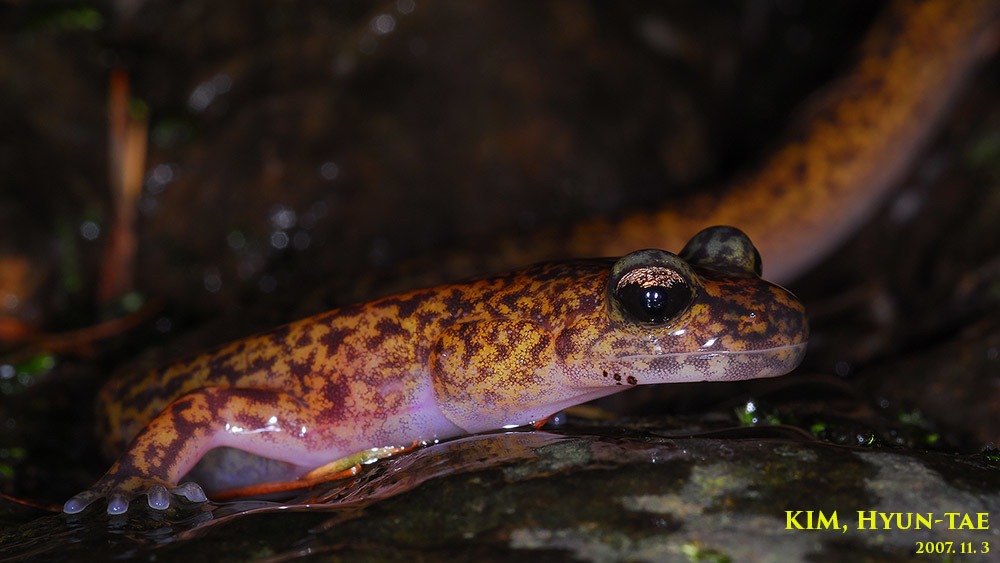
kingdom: Animalia
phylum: Chordata
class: Amphibia
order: Caudata
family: Hynobiidae
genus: Onychodactylus
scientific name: Onychodactylus koreanus
